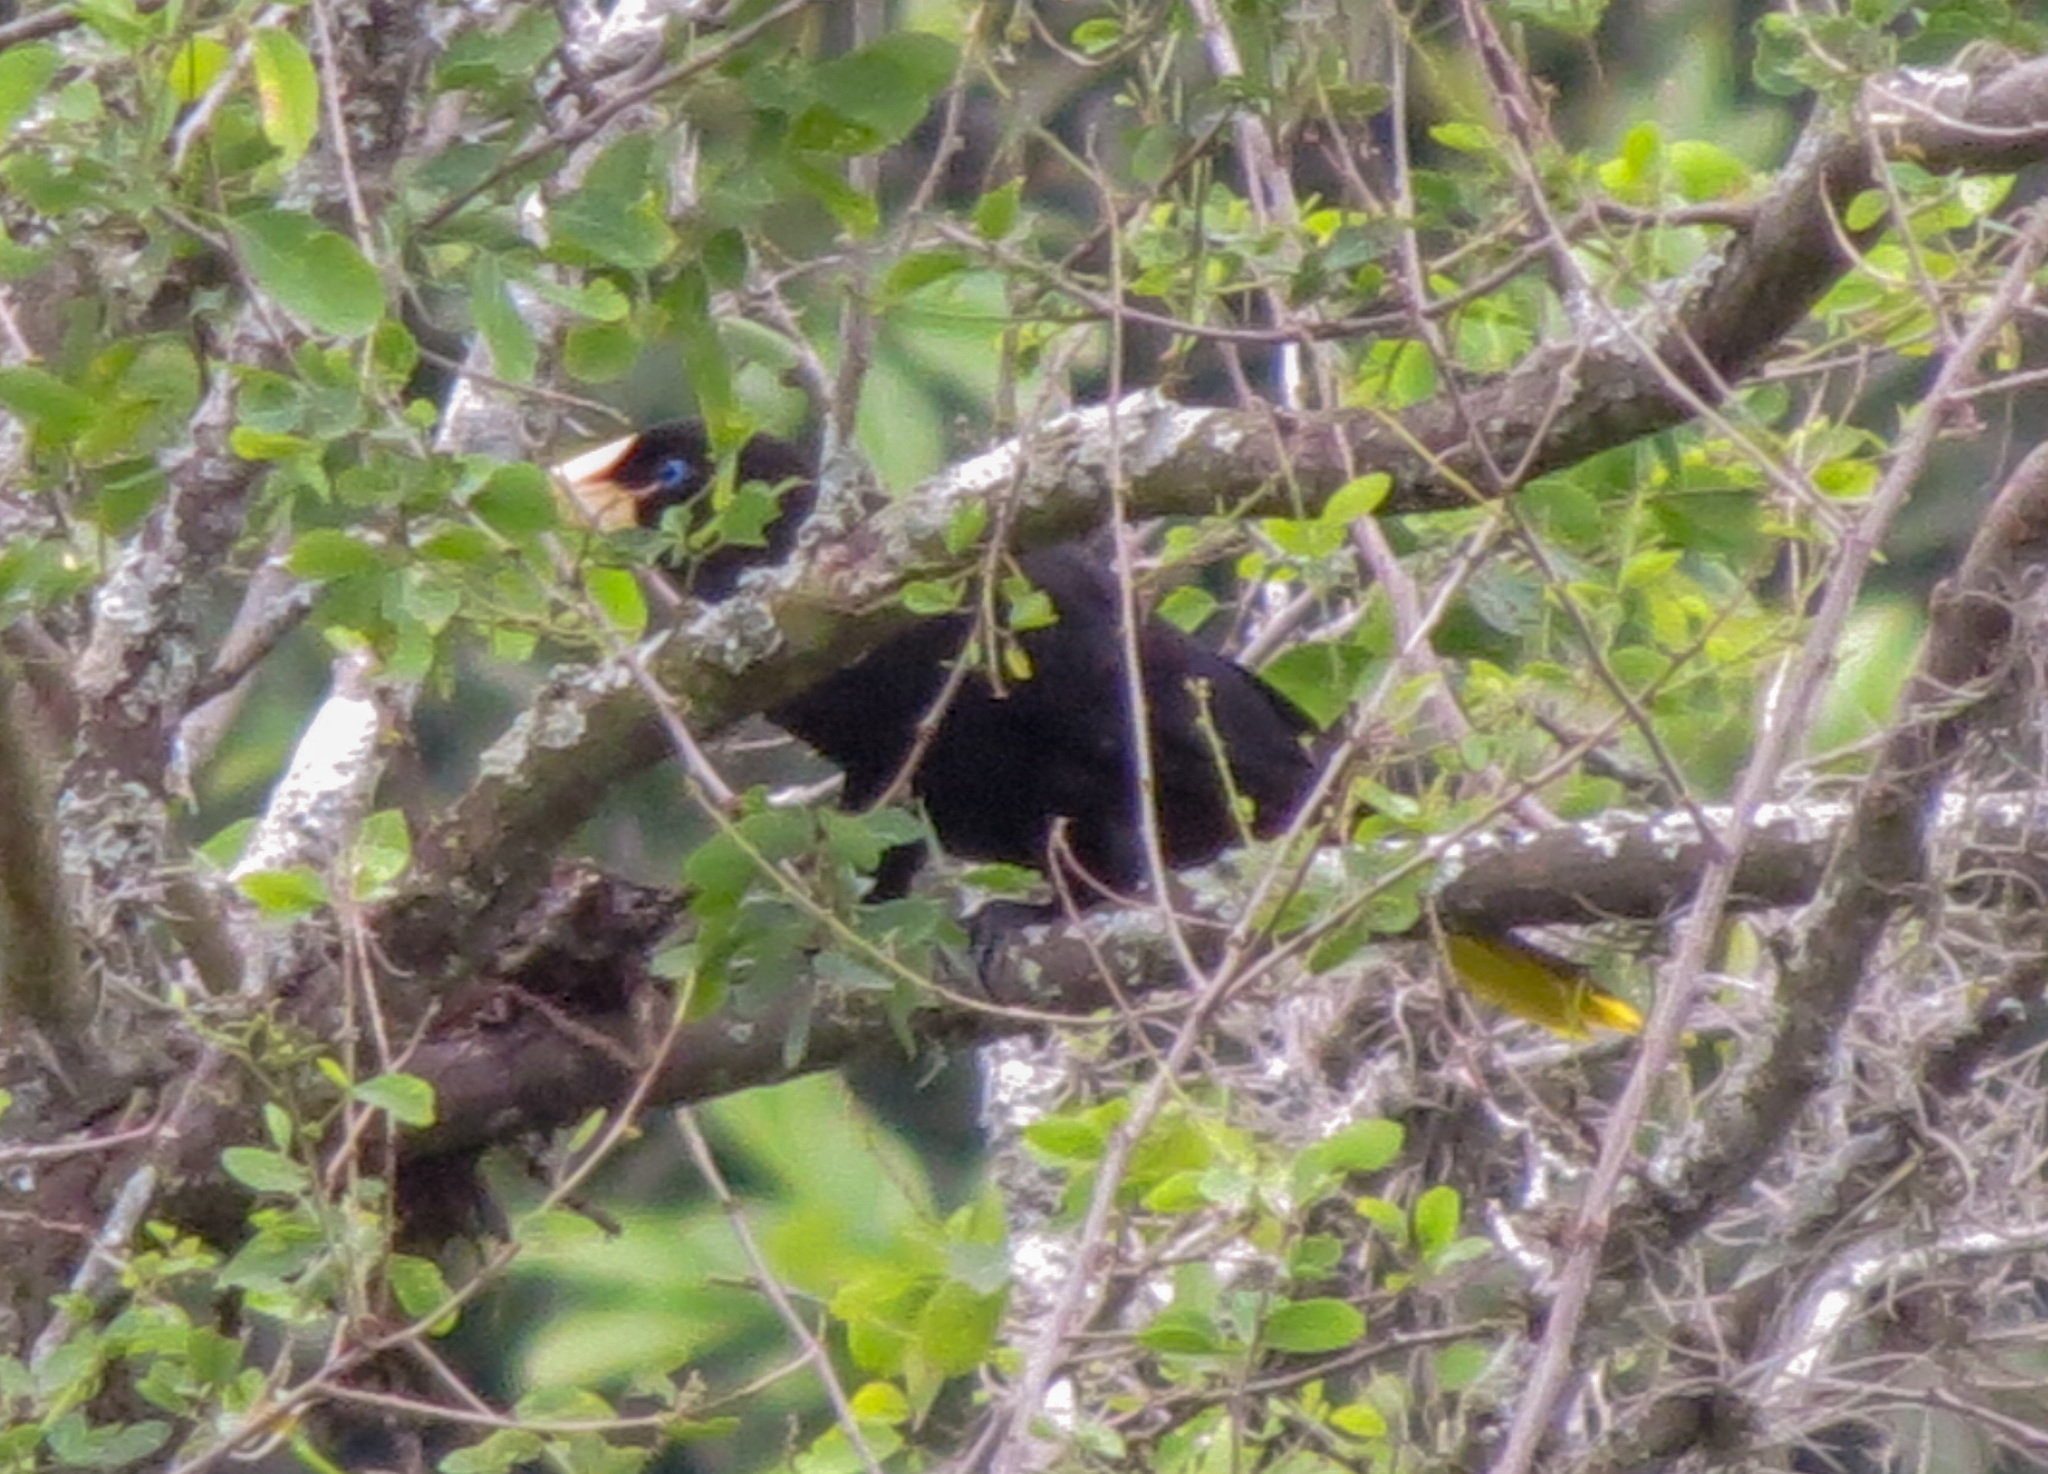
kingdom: Animalia
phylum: Chordata
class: Aves
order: Passeriformes
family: Icteridae
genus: Psarocolius
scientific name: Psarocolius decumanus
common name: Crested oropendola
